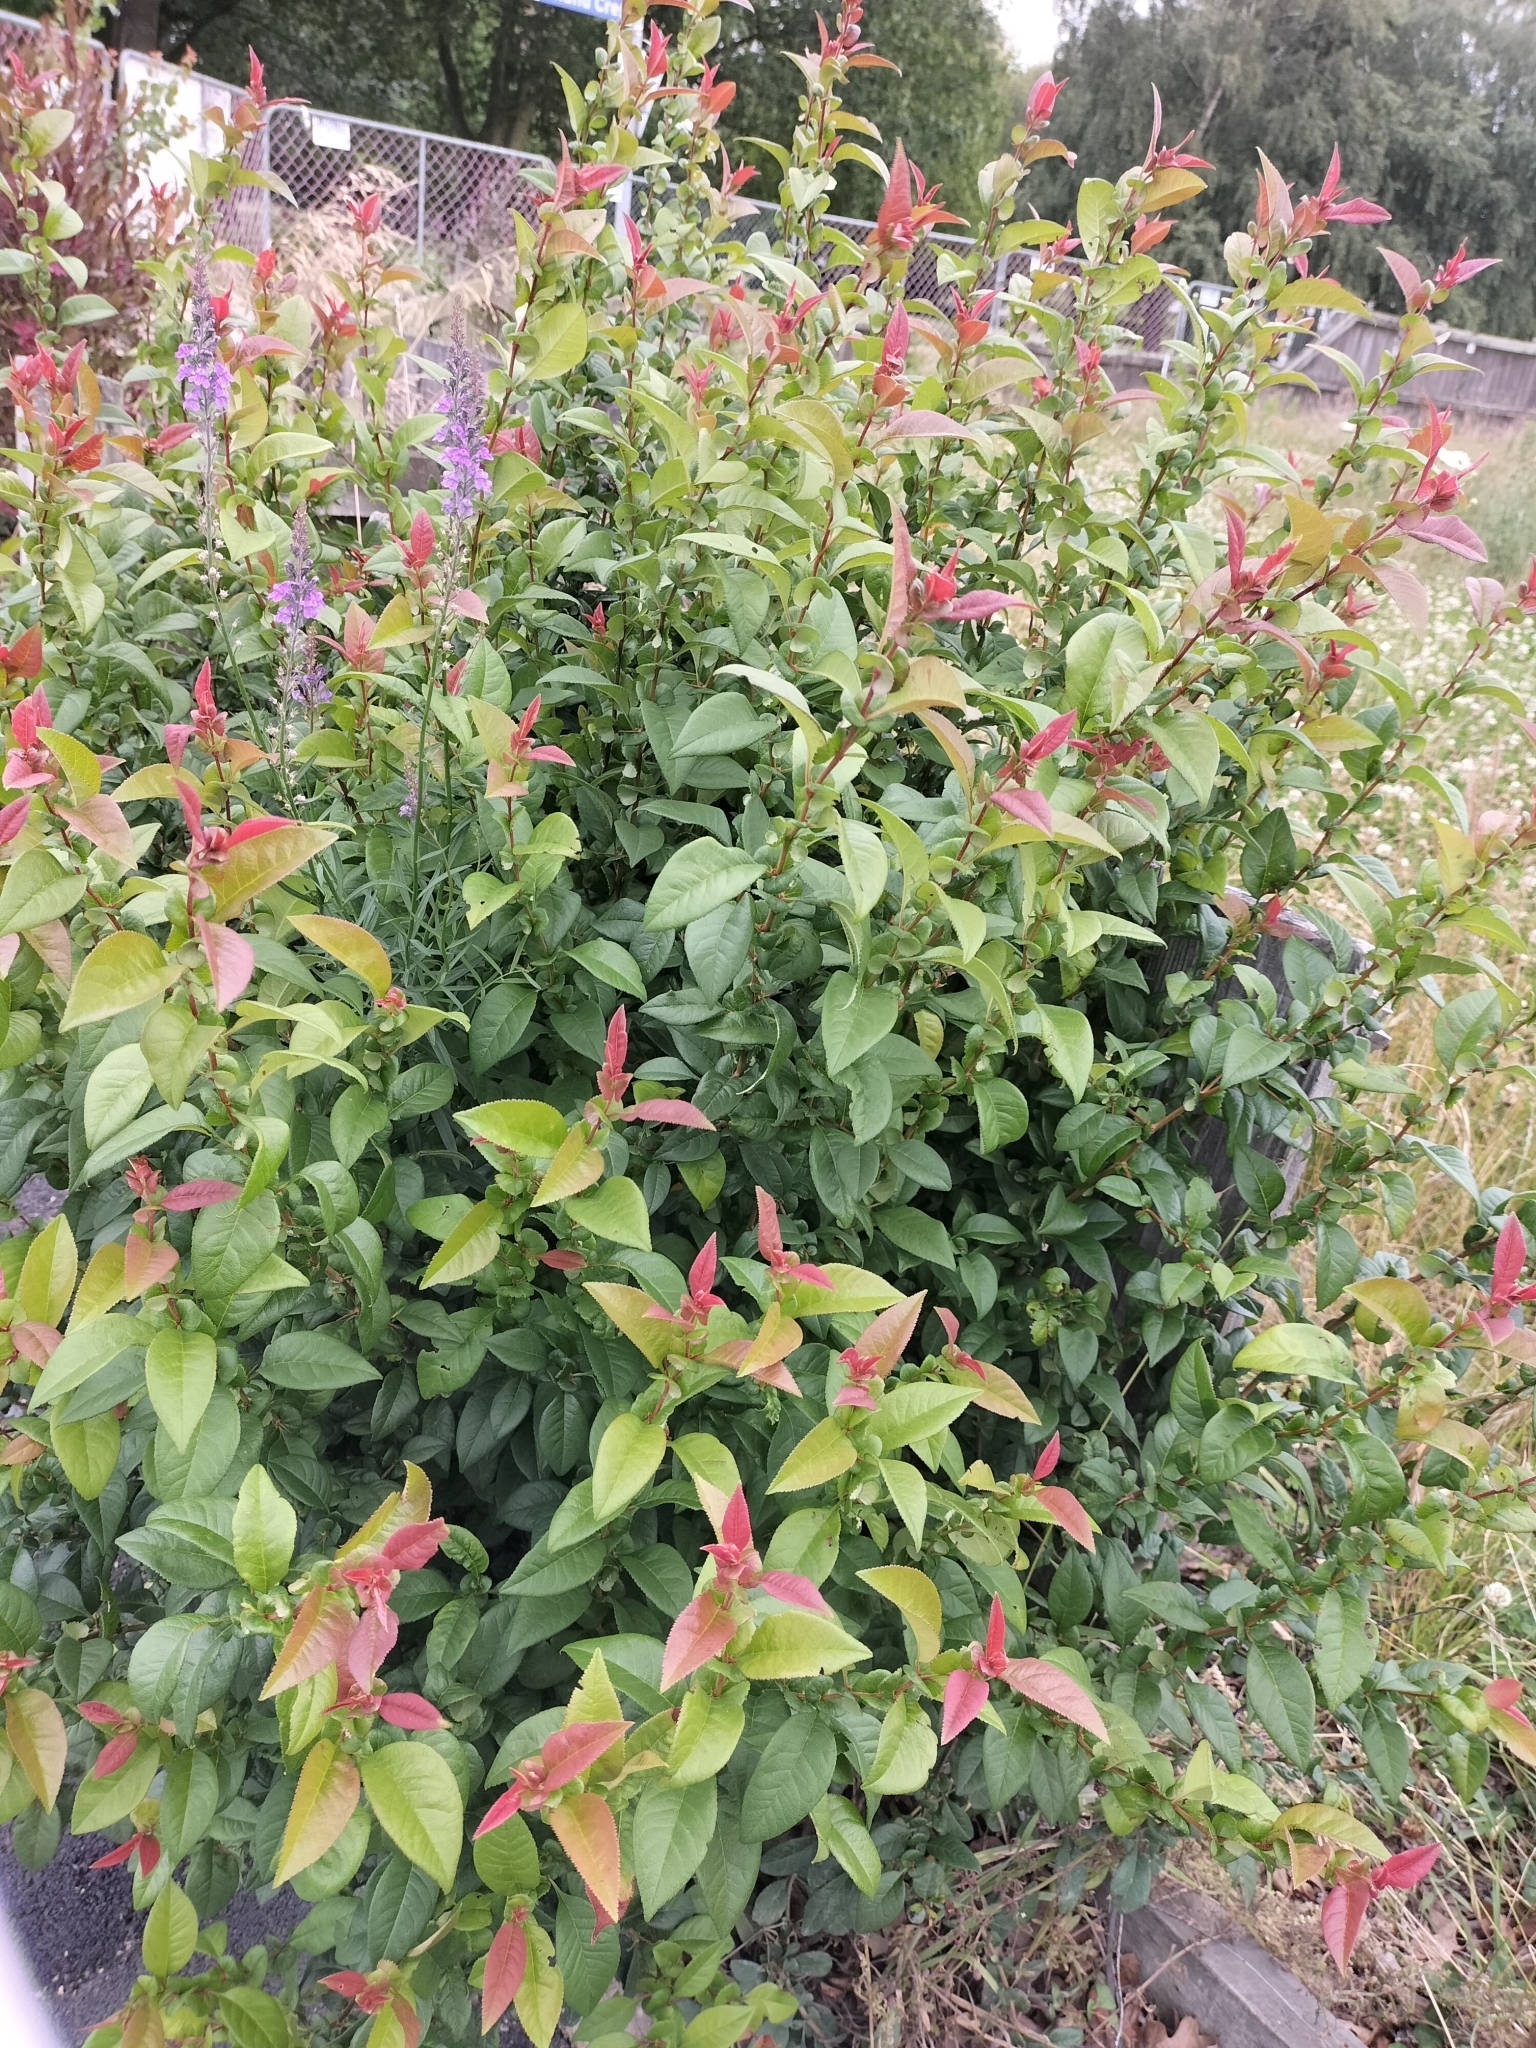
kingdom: Plantae
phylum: Tracheophyta
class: Magnoliopsida
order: Rosales
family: Rosaceae
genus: Chaenomeles
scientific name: Chaenomeles speciosa
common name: Japanese quince
